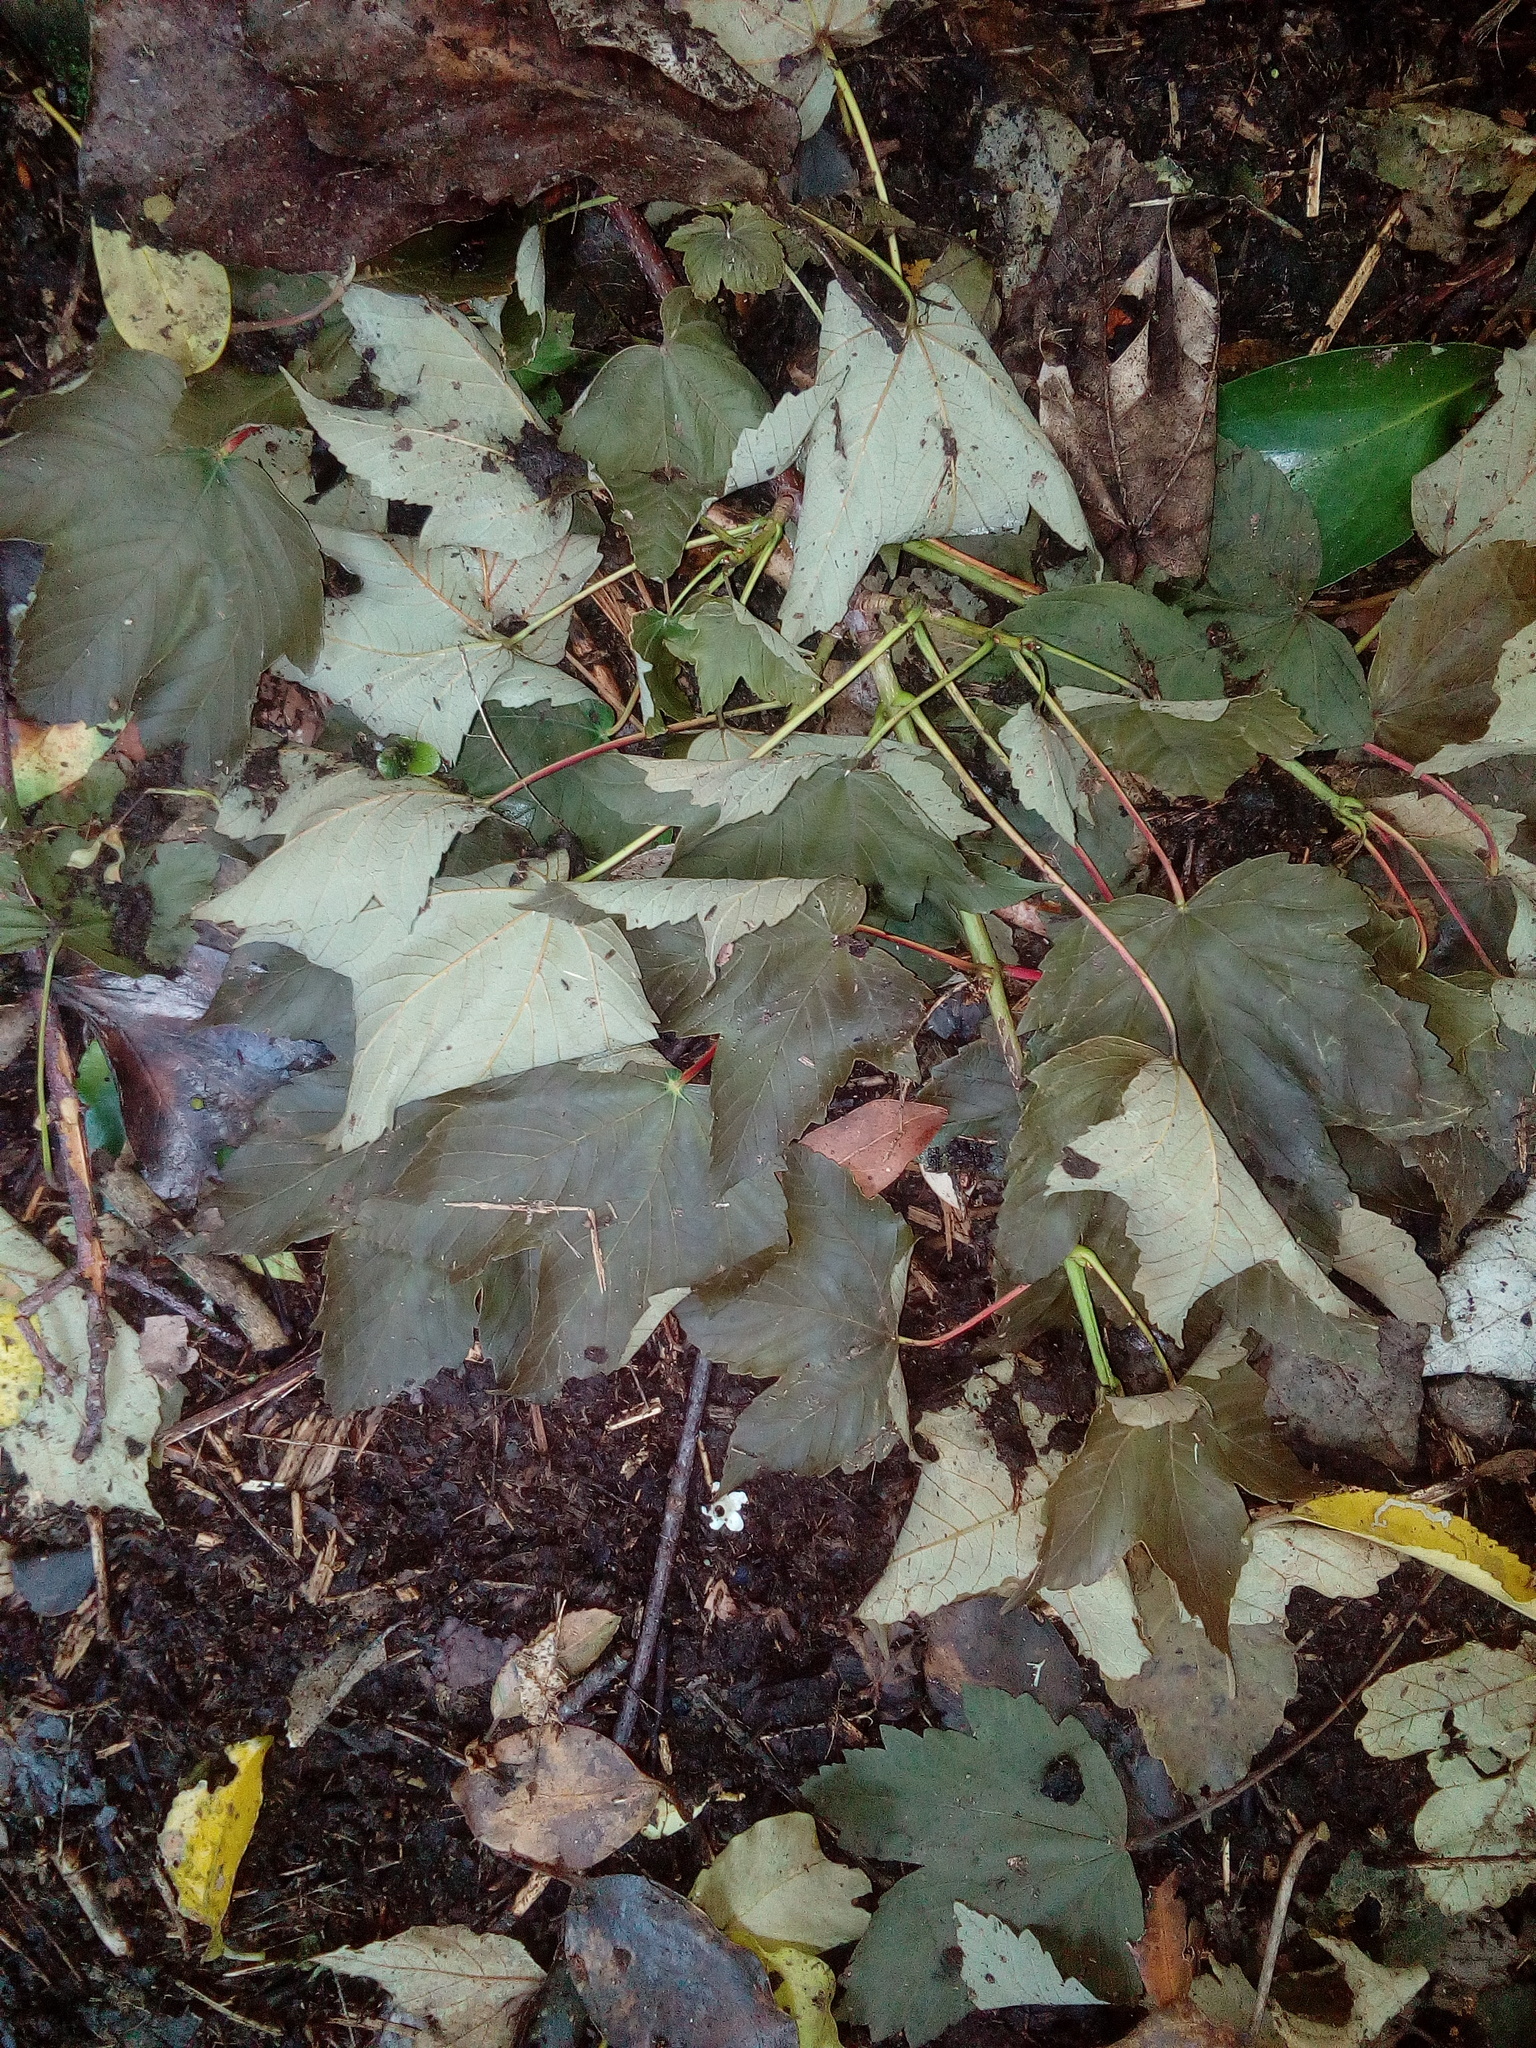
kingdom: Plantae
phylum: Tracheophyta
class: Magnoliopsida
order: Sapindales
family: Sapindaceae
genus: Acer
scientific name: Acer pseudoplatanus
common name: Sycamore
